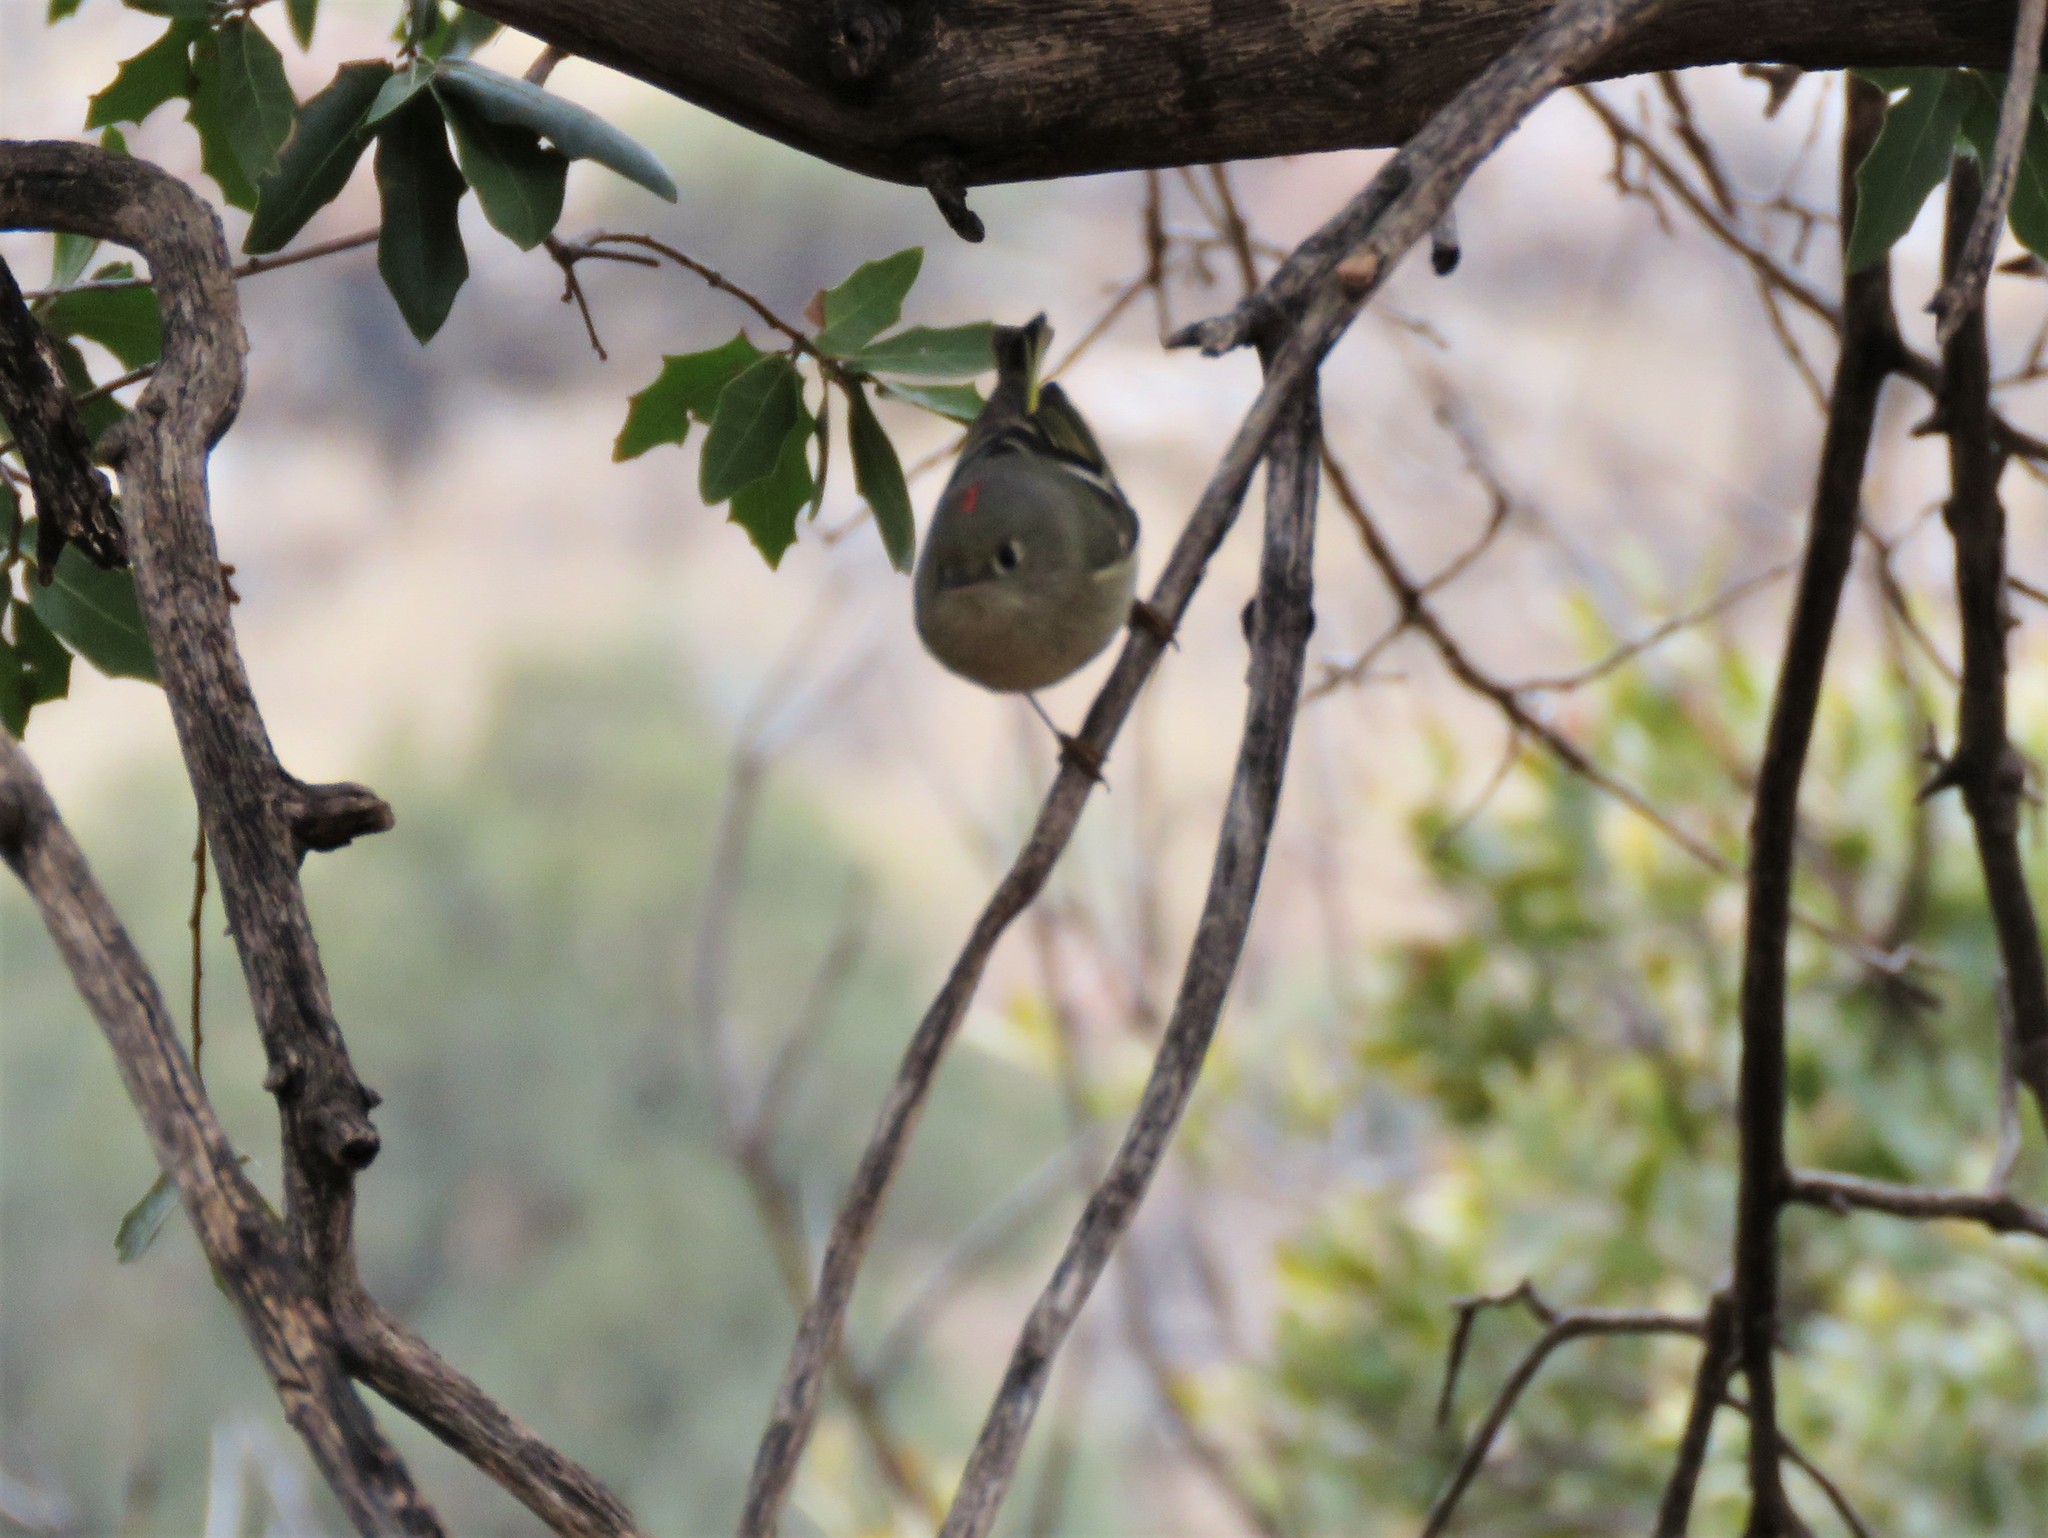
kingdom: Animalia
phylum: Chordata
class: Aves
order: Passeriformes
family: Regulidae
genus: Regulus
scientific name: Regulus calendula
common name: Ruby-crowned kinglet
